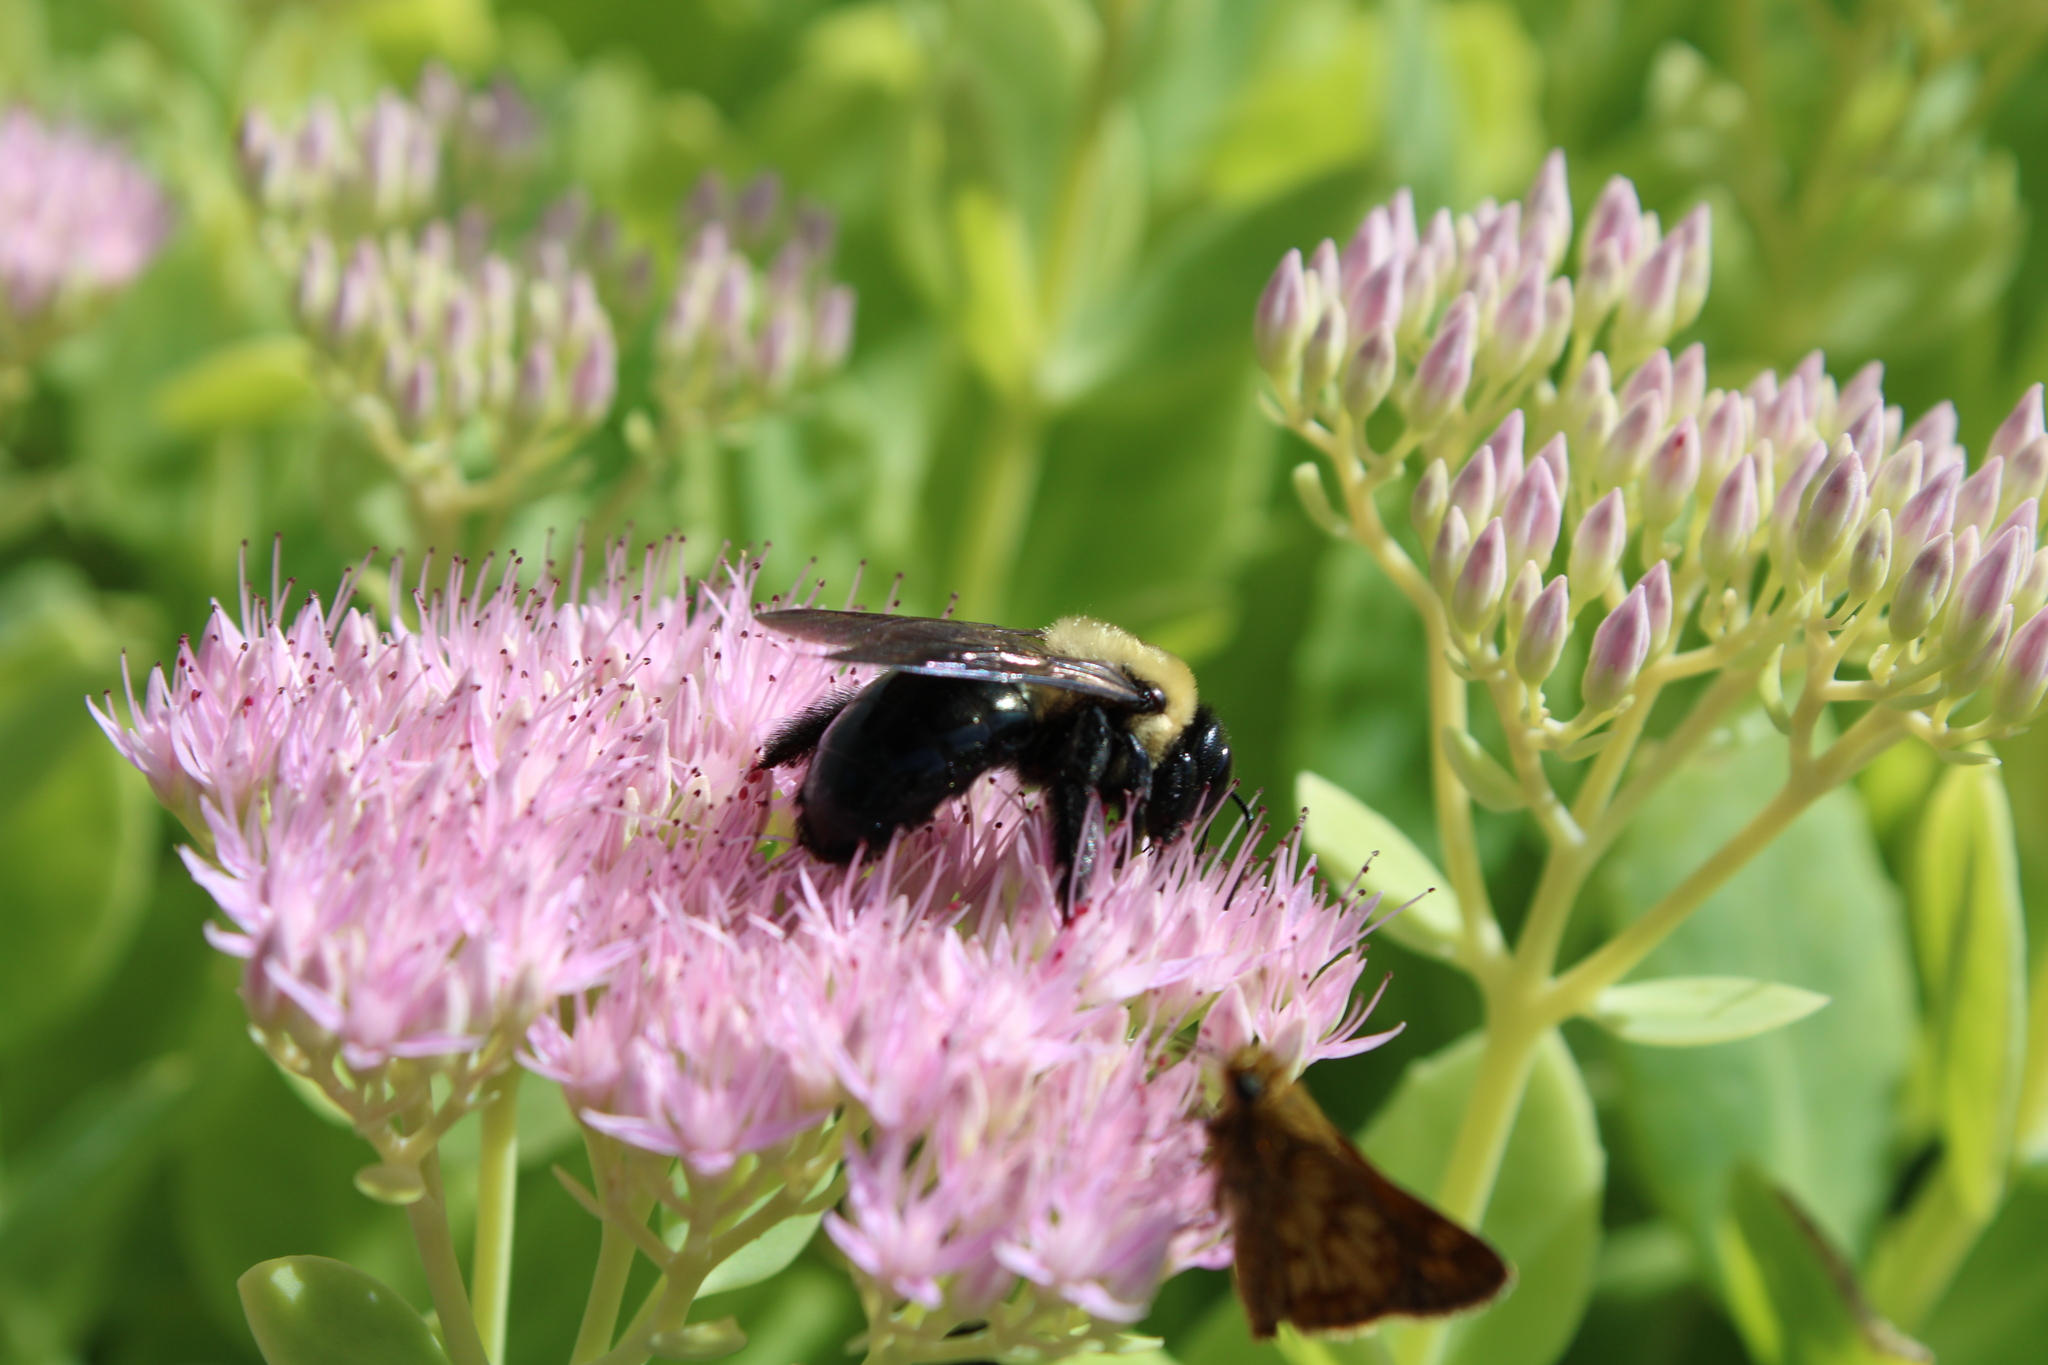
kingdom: Animalia
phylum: Arthropoda
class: Insecta
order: Lepidoptera
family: Hesperiidae
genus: Polites
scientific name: Polites coras
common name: Peck's skipper
